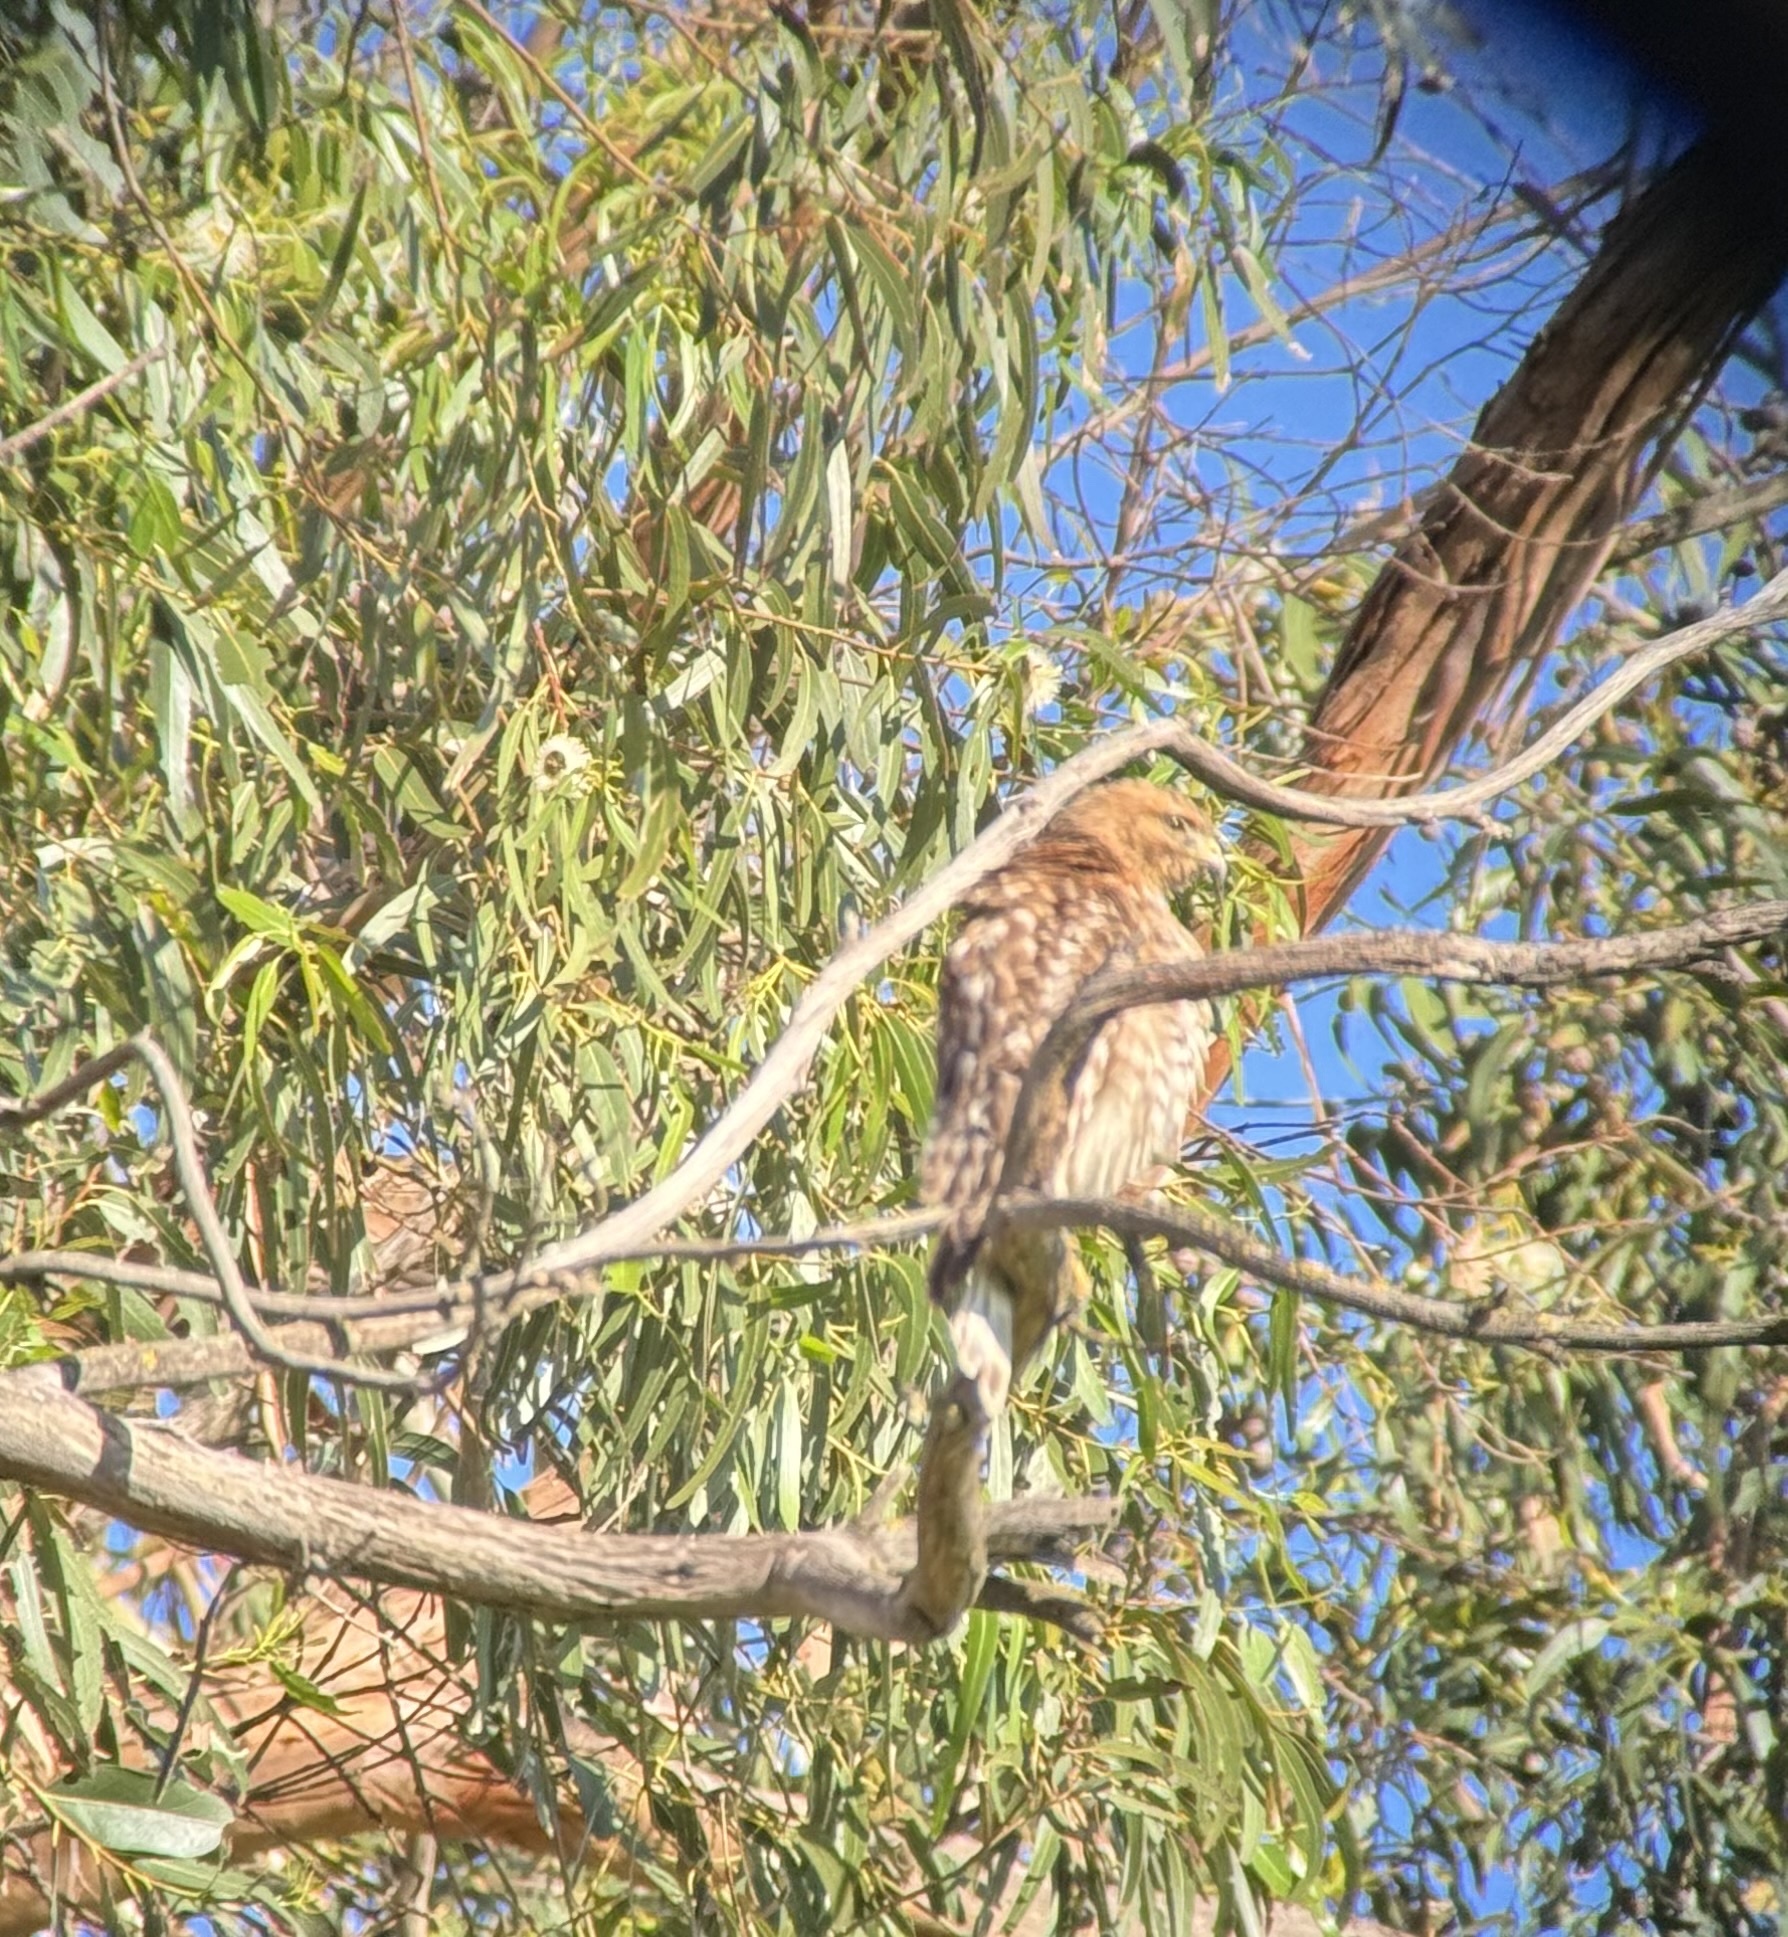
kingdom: Animalia
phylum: Chordata
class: Aves
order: Accipitriformes
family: Accipitridae
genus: Buteo
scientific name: Buteo lineatus
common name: Red-shouldered hawk
